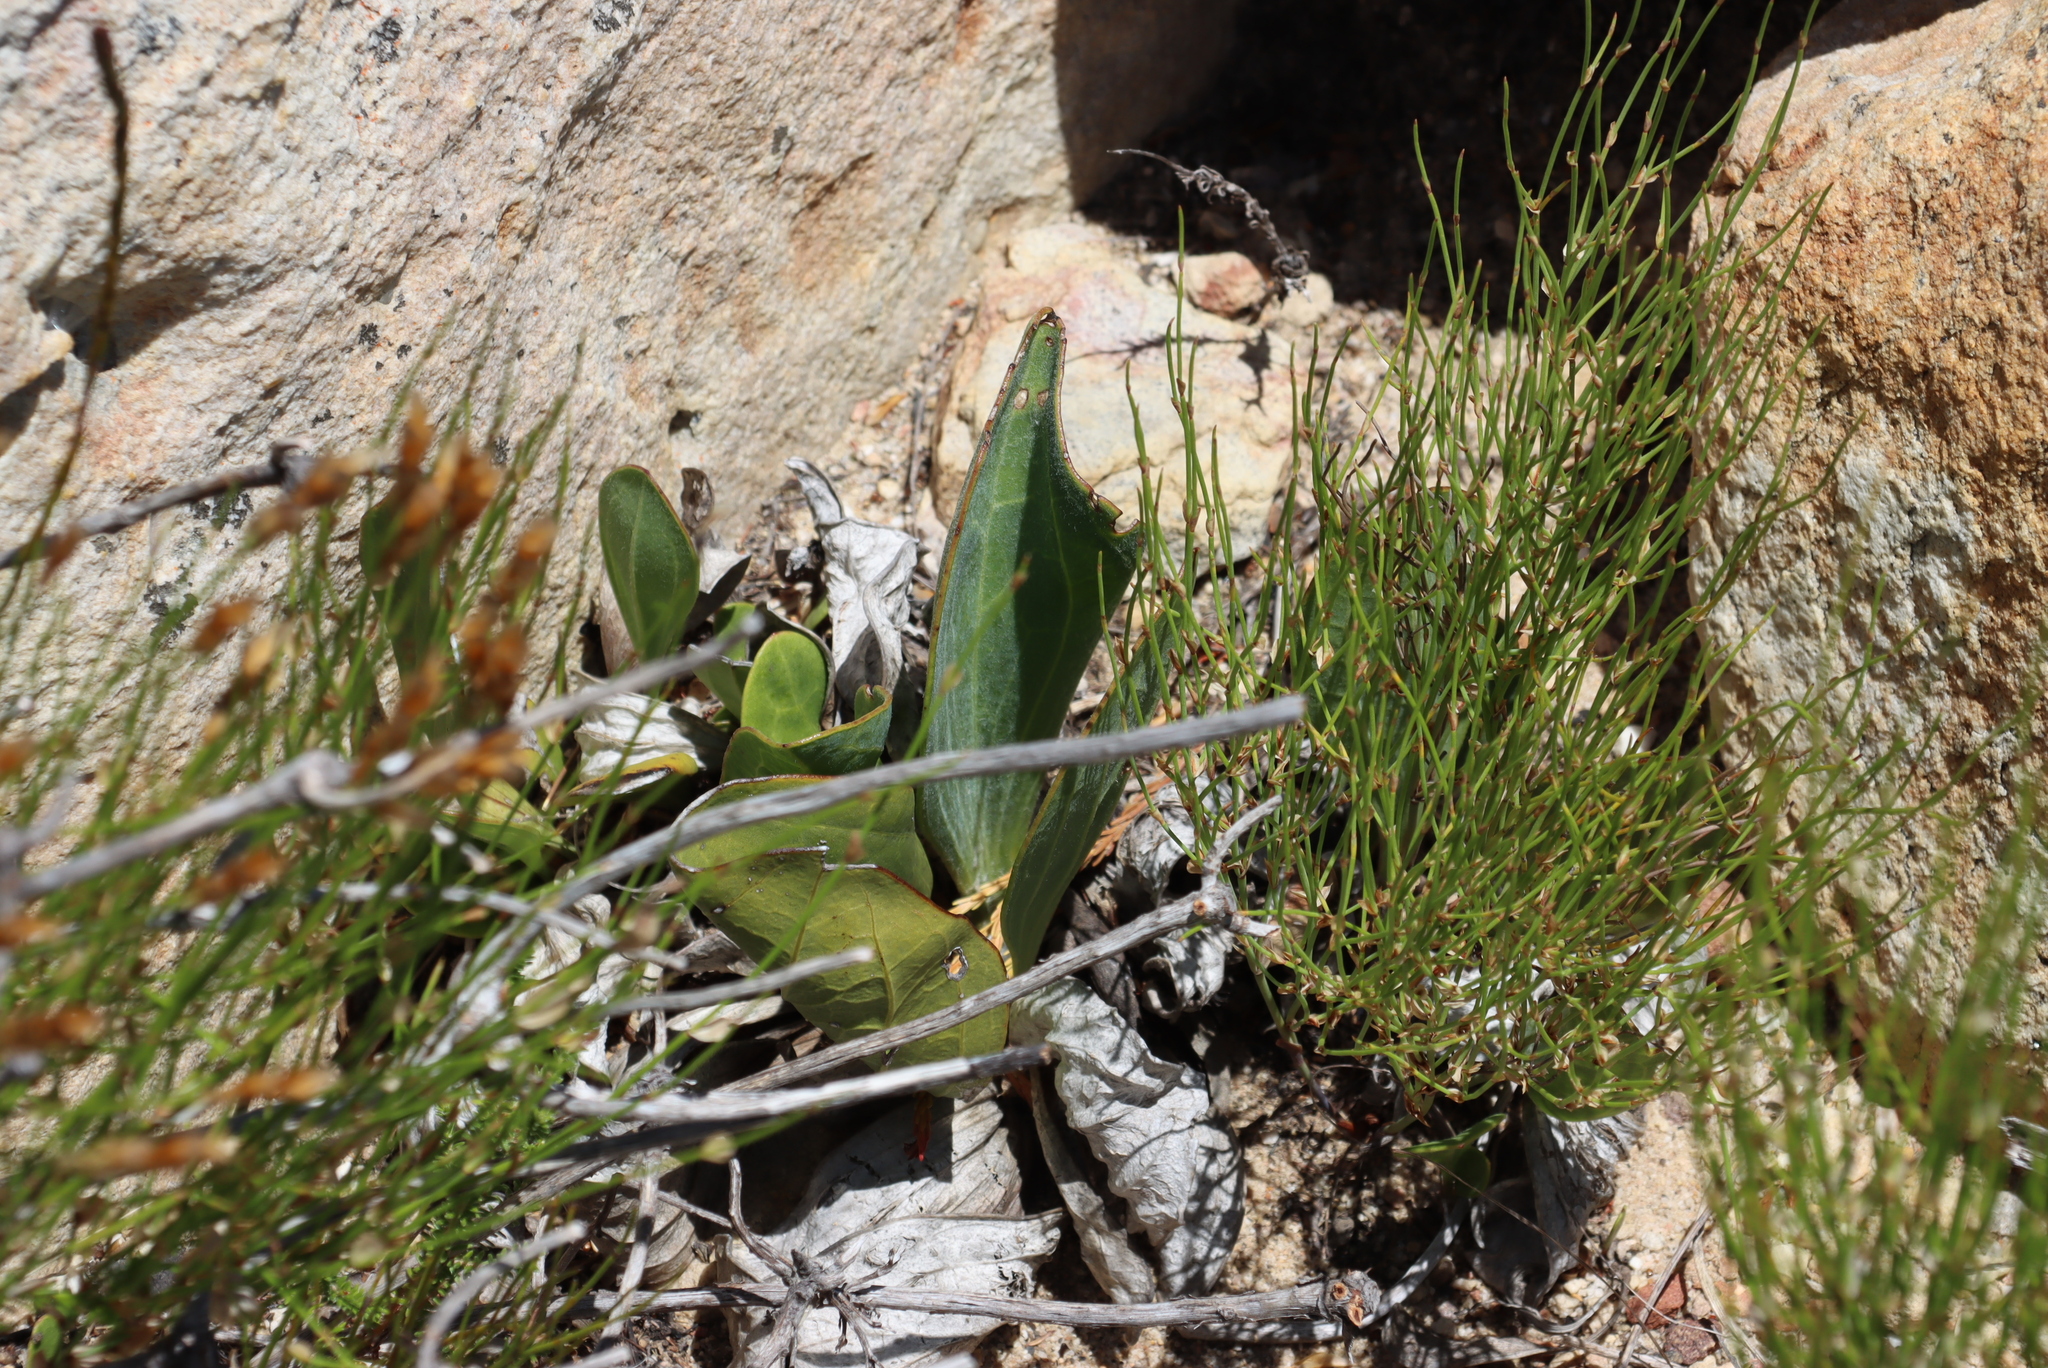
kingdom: Plantae
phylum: Tracheophyta
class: Magnoliopsida
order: Asterales
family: Asteraceae
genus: Mairia
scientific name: Mairia coriacea
